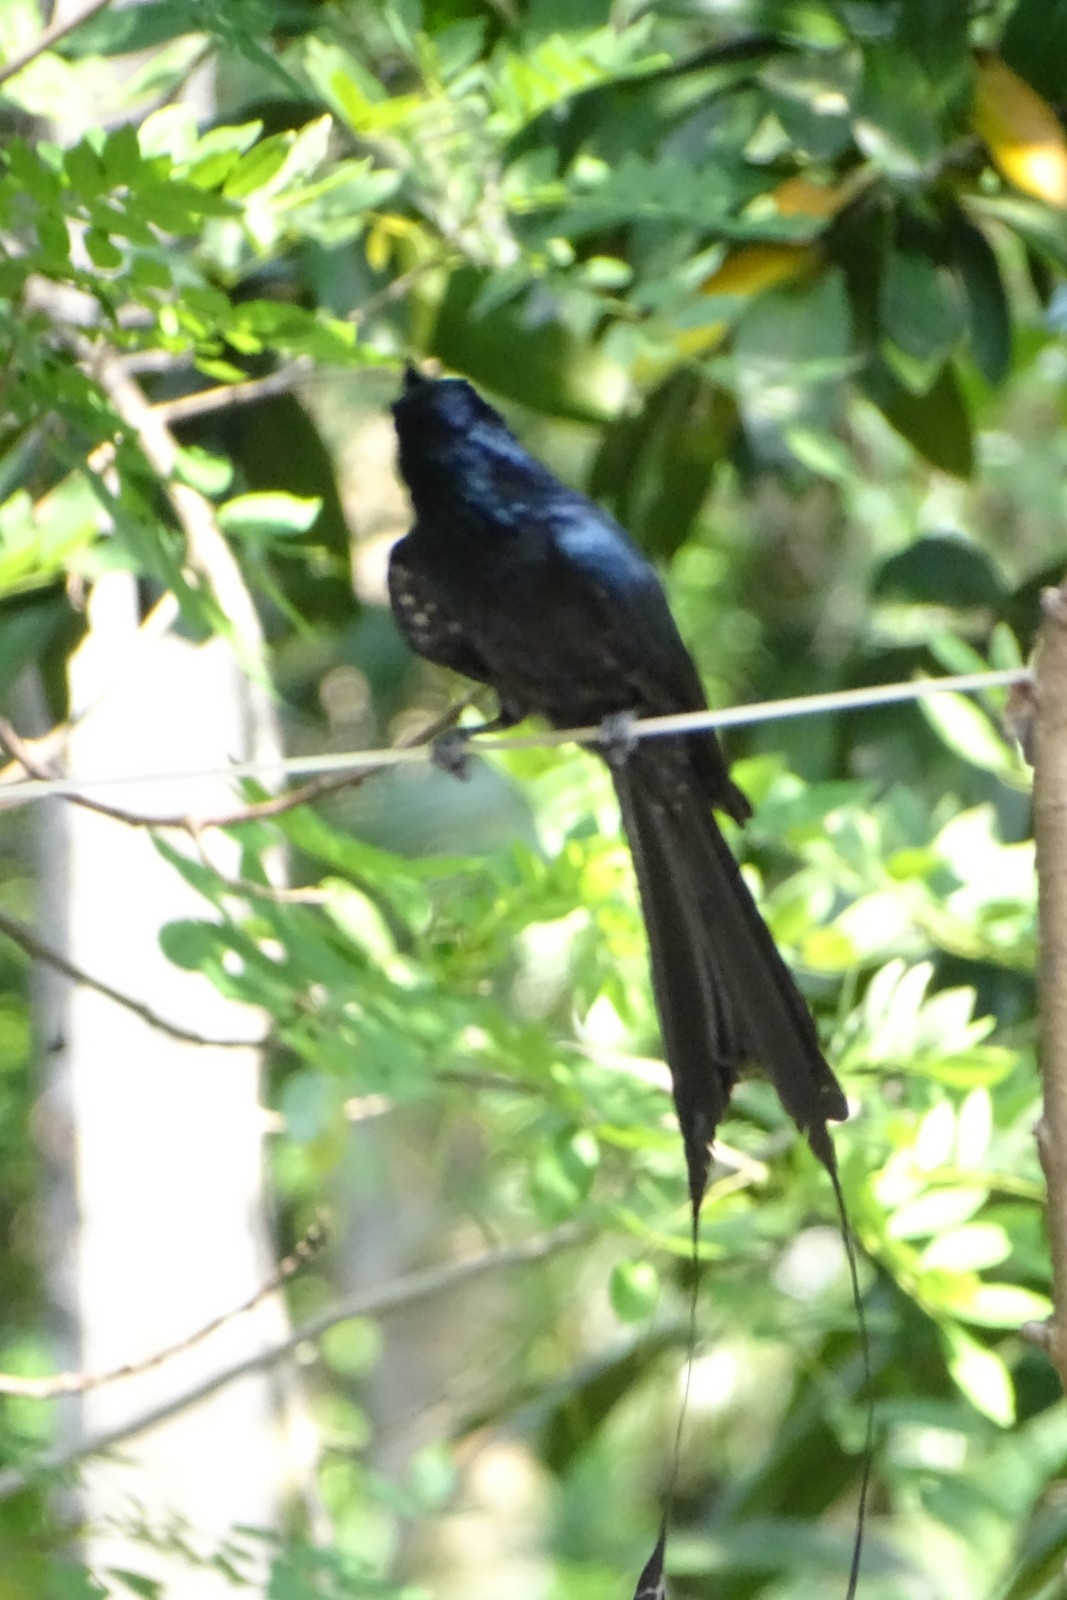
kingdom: Animalia
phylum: Chordata
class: Aves
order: Passeriformes
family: Dicruridae
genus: Dicrurus
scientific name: Dicrurus paradiseus
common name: Greater racket-tailed drongo
